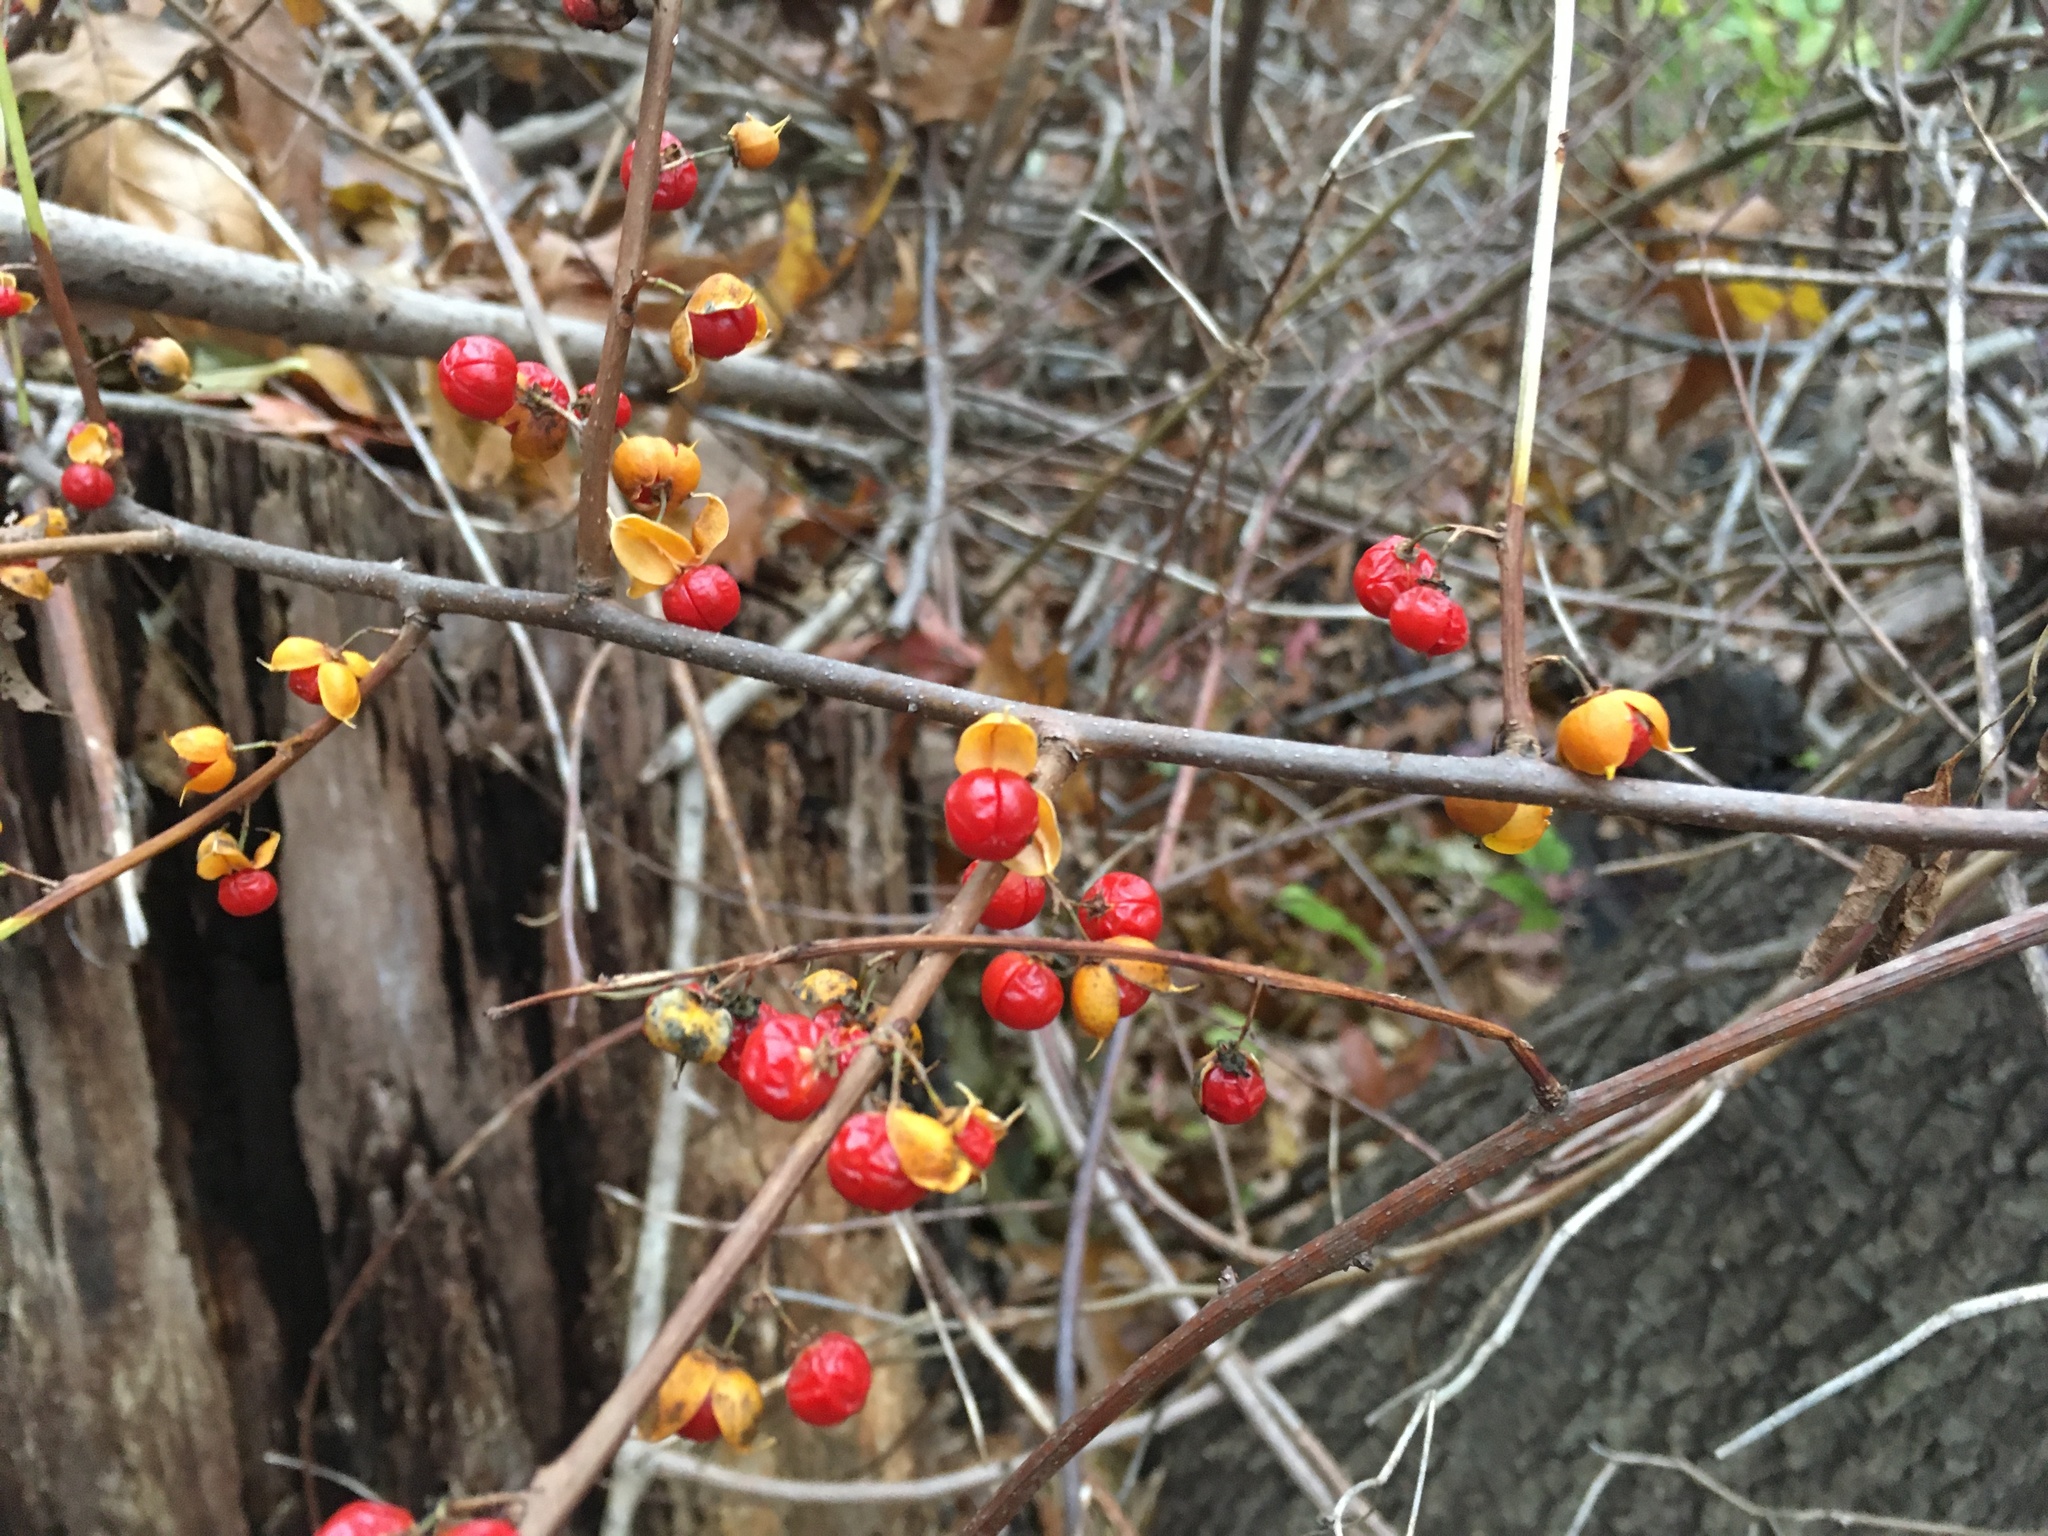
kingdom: Plantae
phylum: Tracheophyta
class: Magnoliopsida
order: Celastrales
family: Celastraceae
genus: Celastrus
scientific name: Celastrus orbiculatus
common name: Oriental bittersweet
